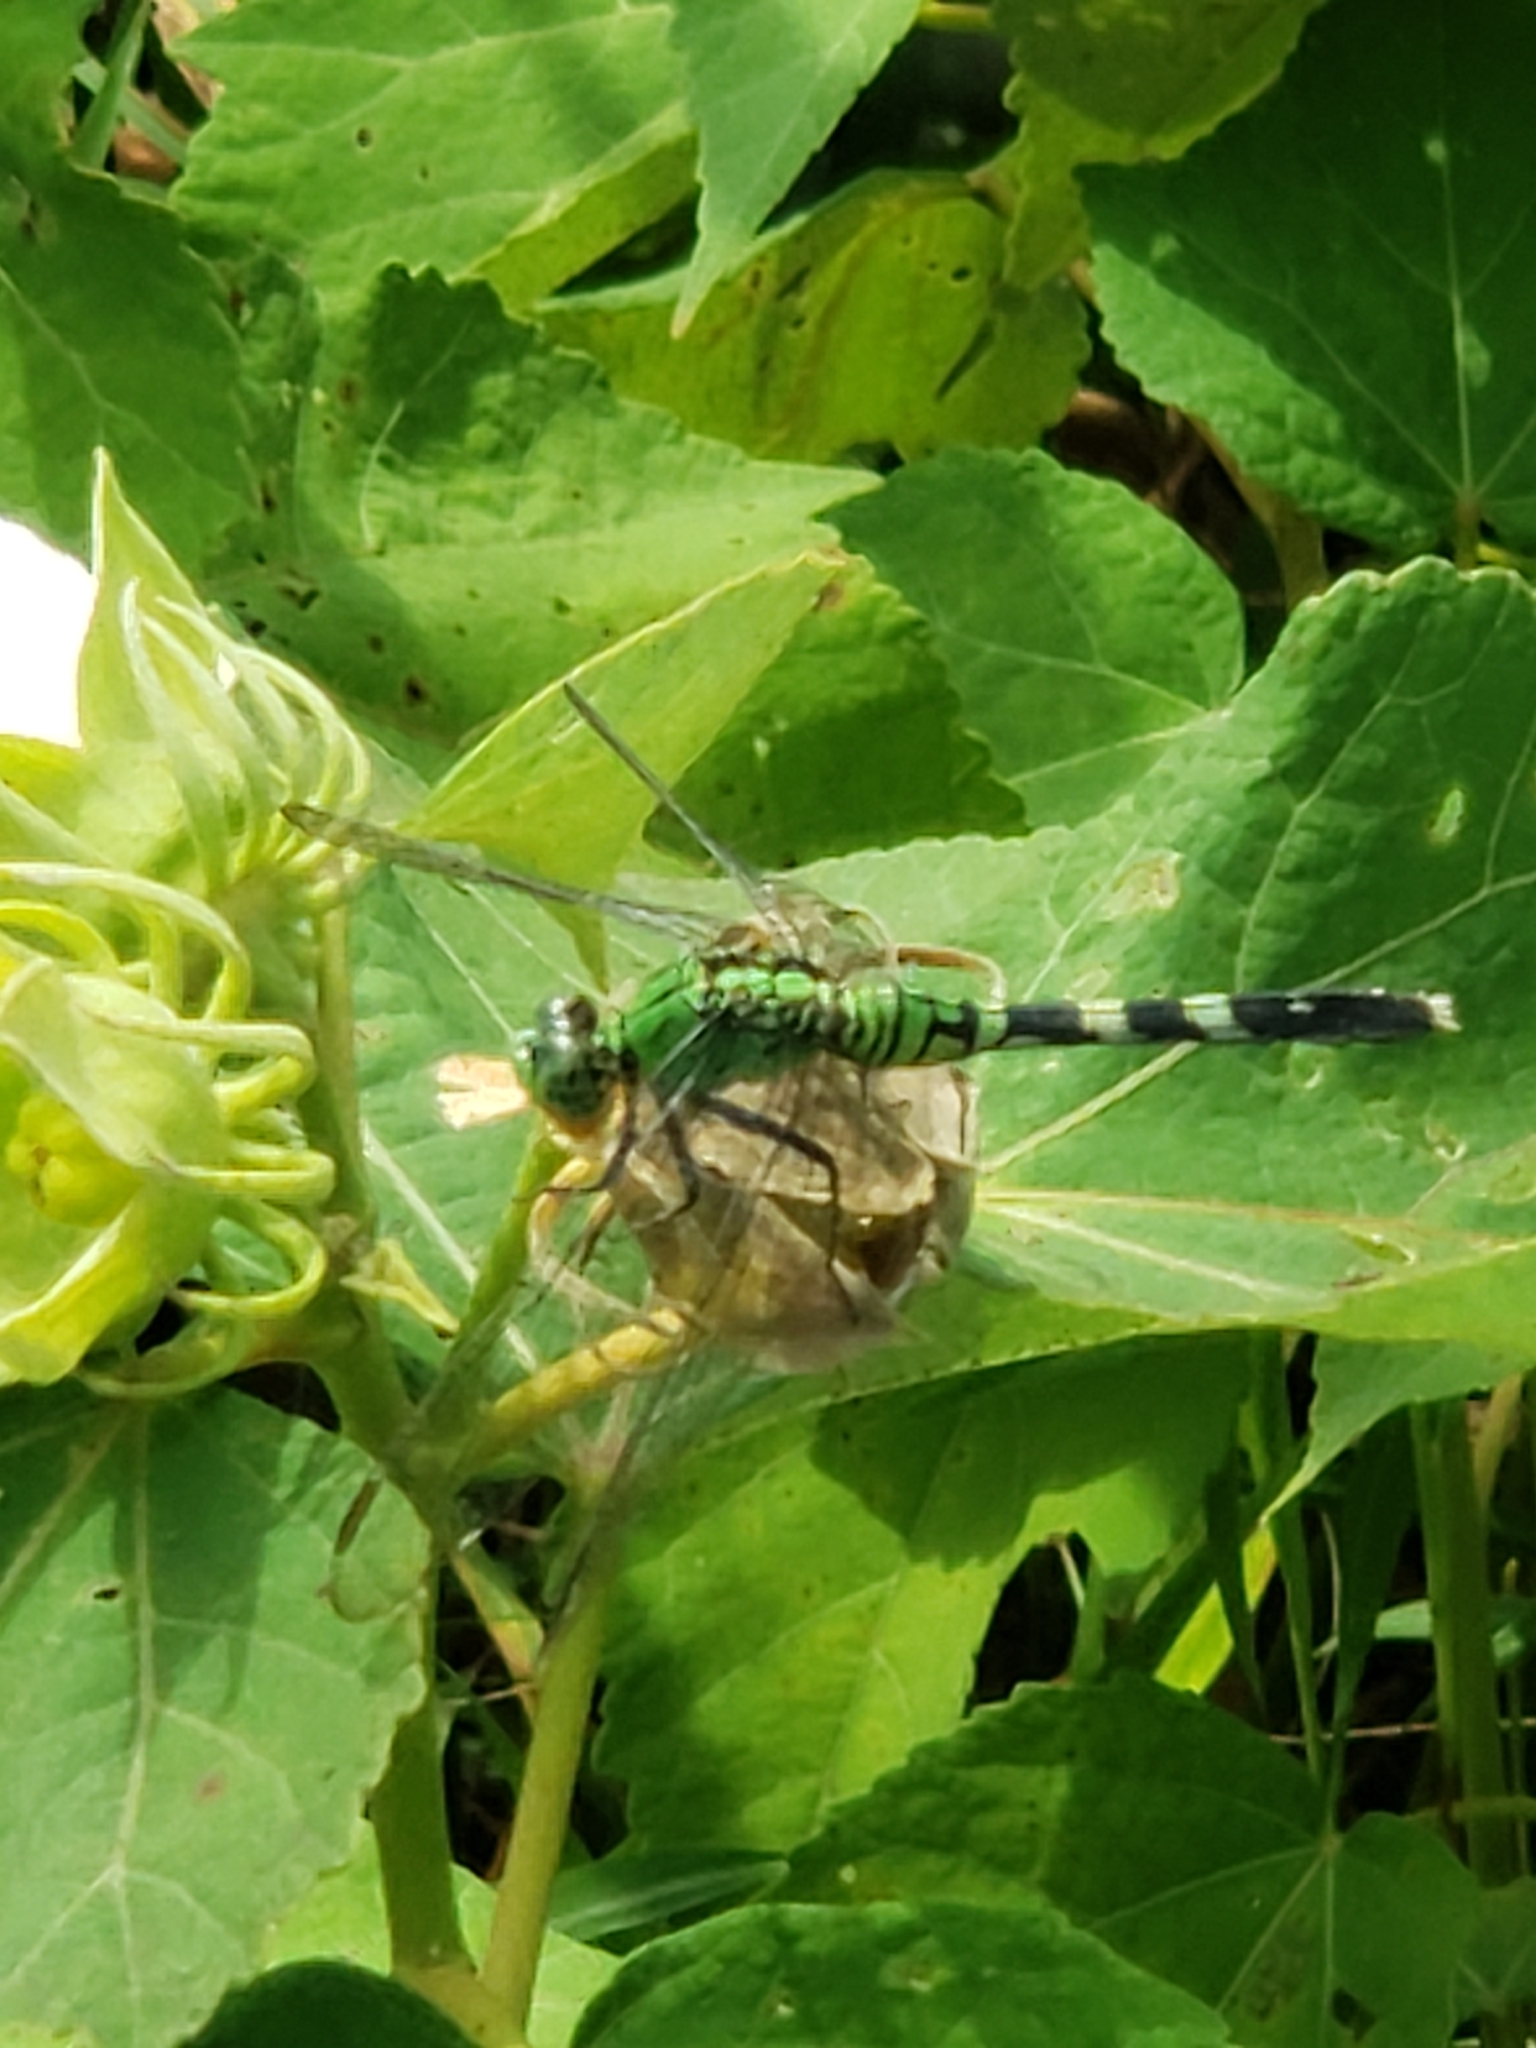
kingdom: Animalia
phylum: Arthropoda
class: Insecta
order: Odonata
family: Libellulidae
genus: Erythemis
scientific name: Erythemis simplicicollis
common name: Eastern pondhawk
